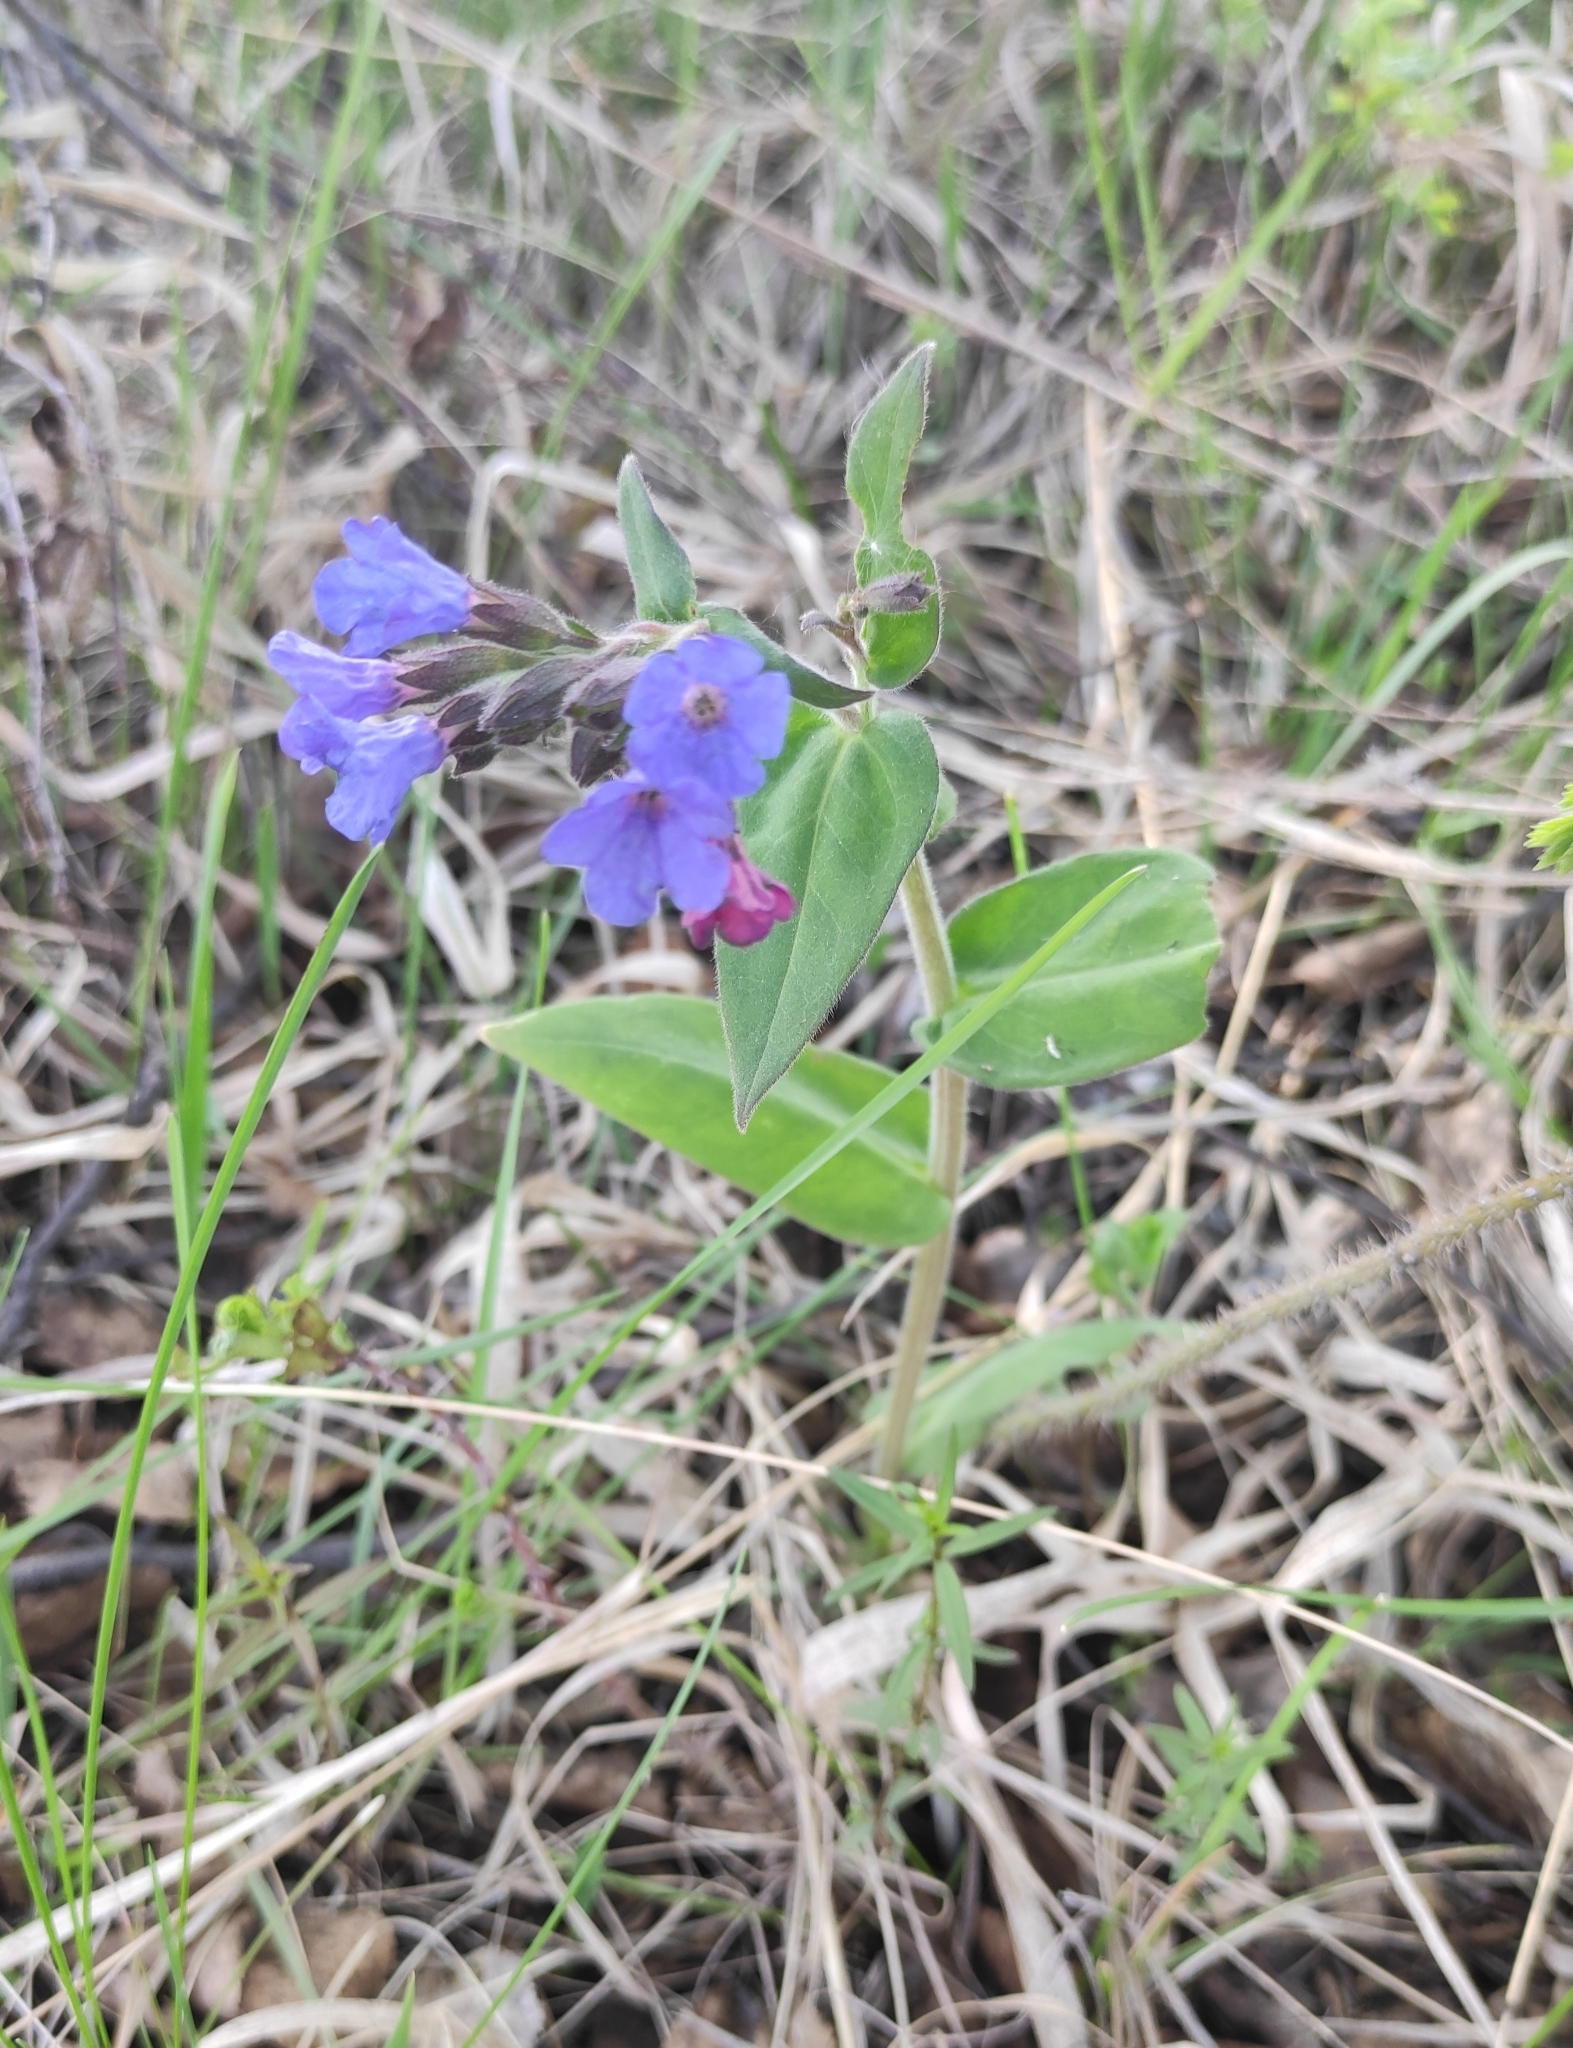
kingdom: Plantae
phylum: Tracheophyta
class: Magnoliopsida
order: Boraginales
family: Boraginaceae
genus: Pulmonaria
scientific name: Pulmonaria mollis
